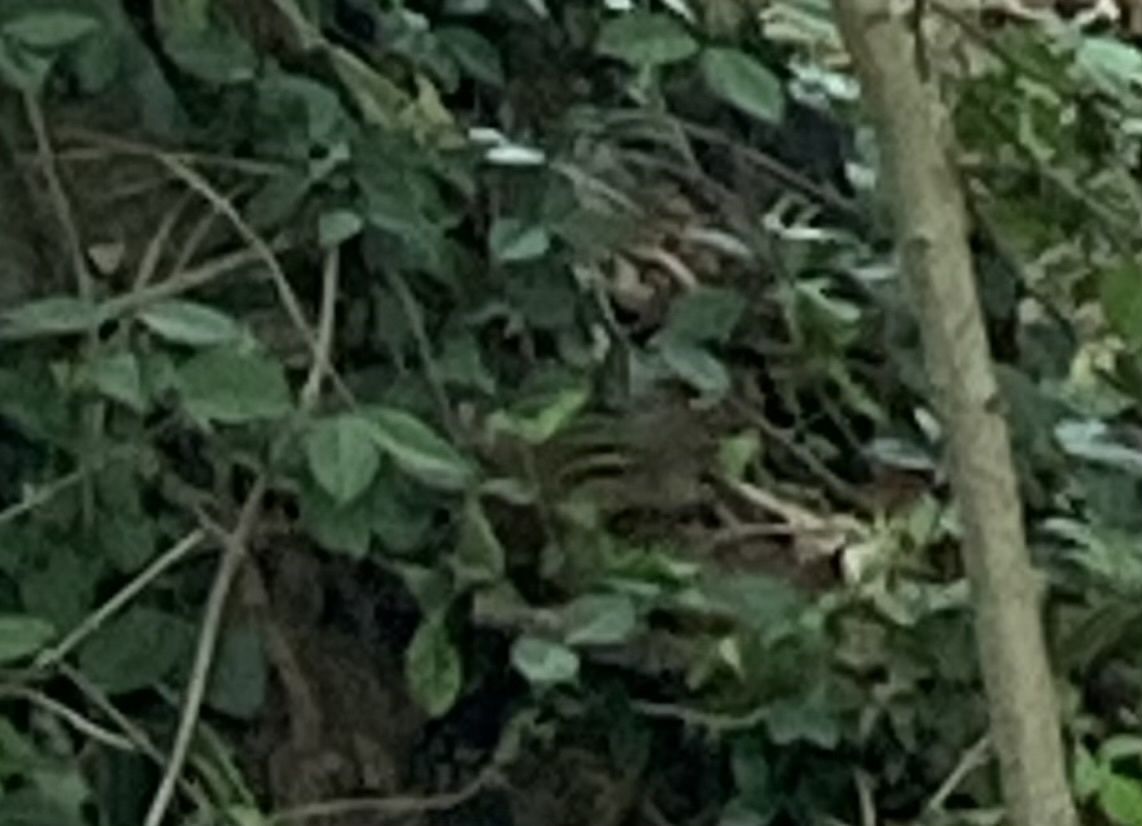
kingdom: Animalia
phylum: Chordata
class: Mammalia
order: Rodentia
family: Sciuridae
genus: Tamias
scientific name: Tamias striatus
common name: Eastern chipmunk
